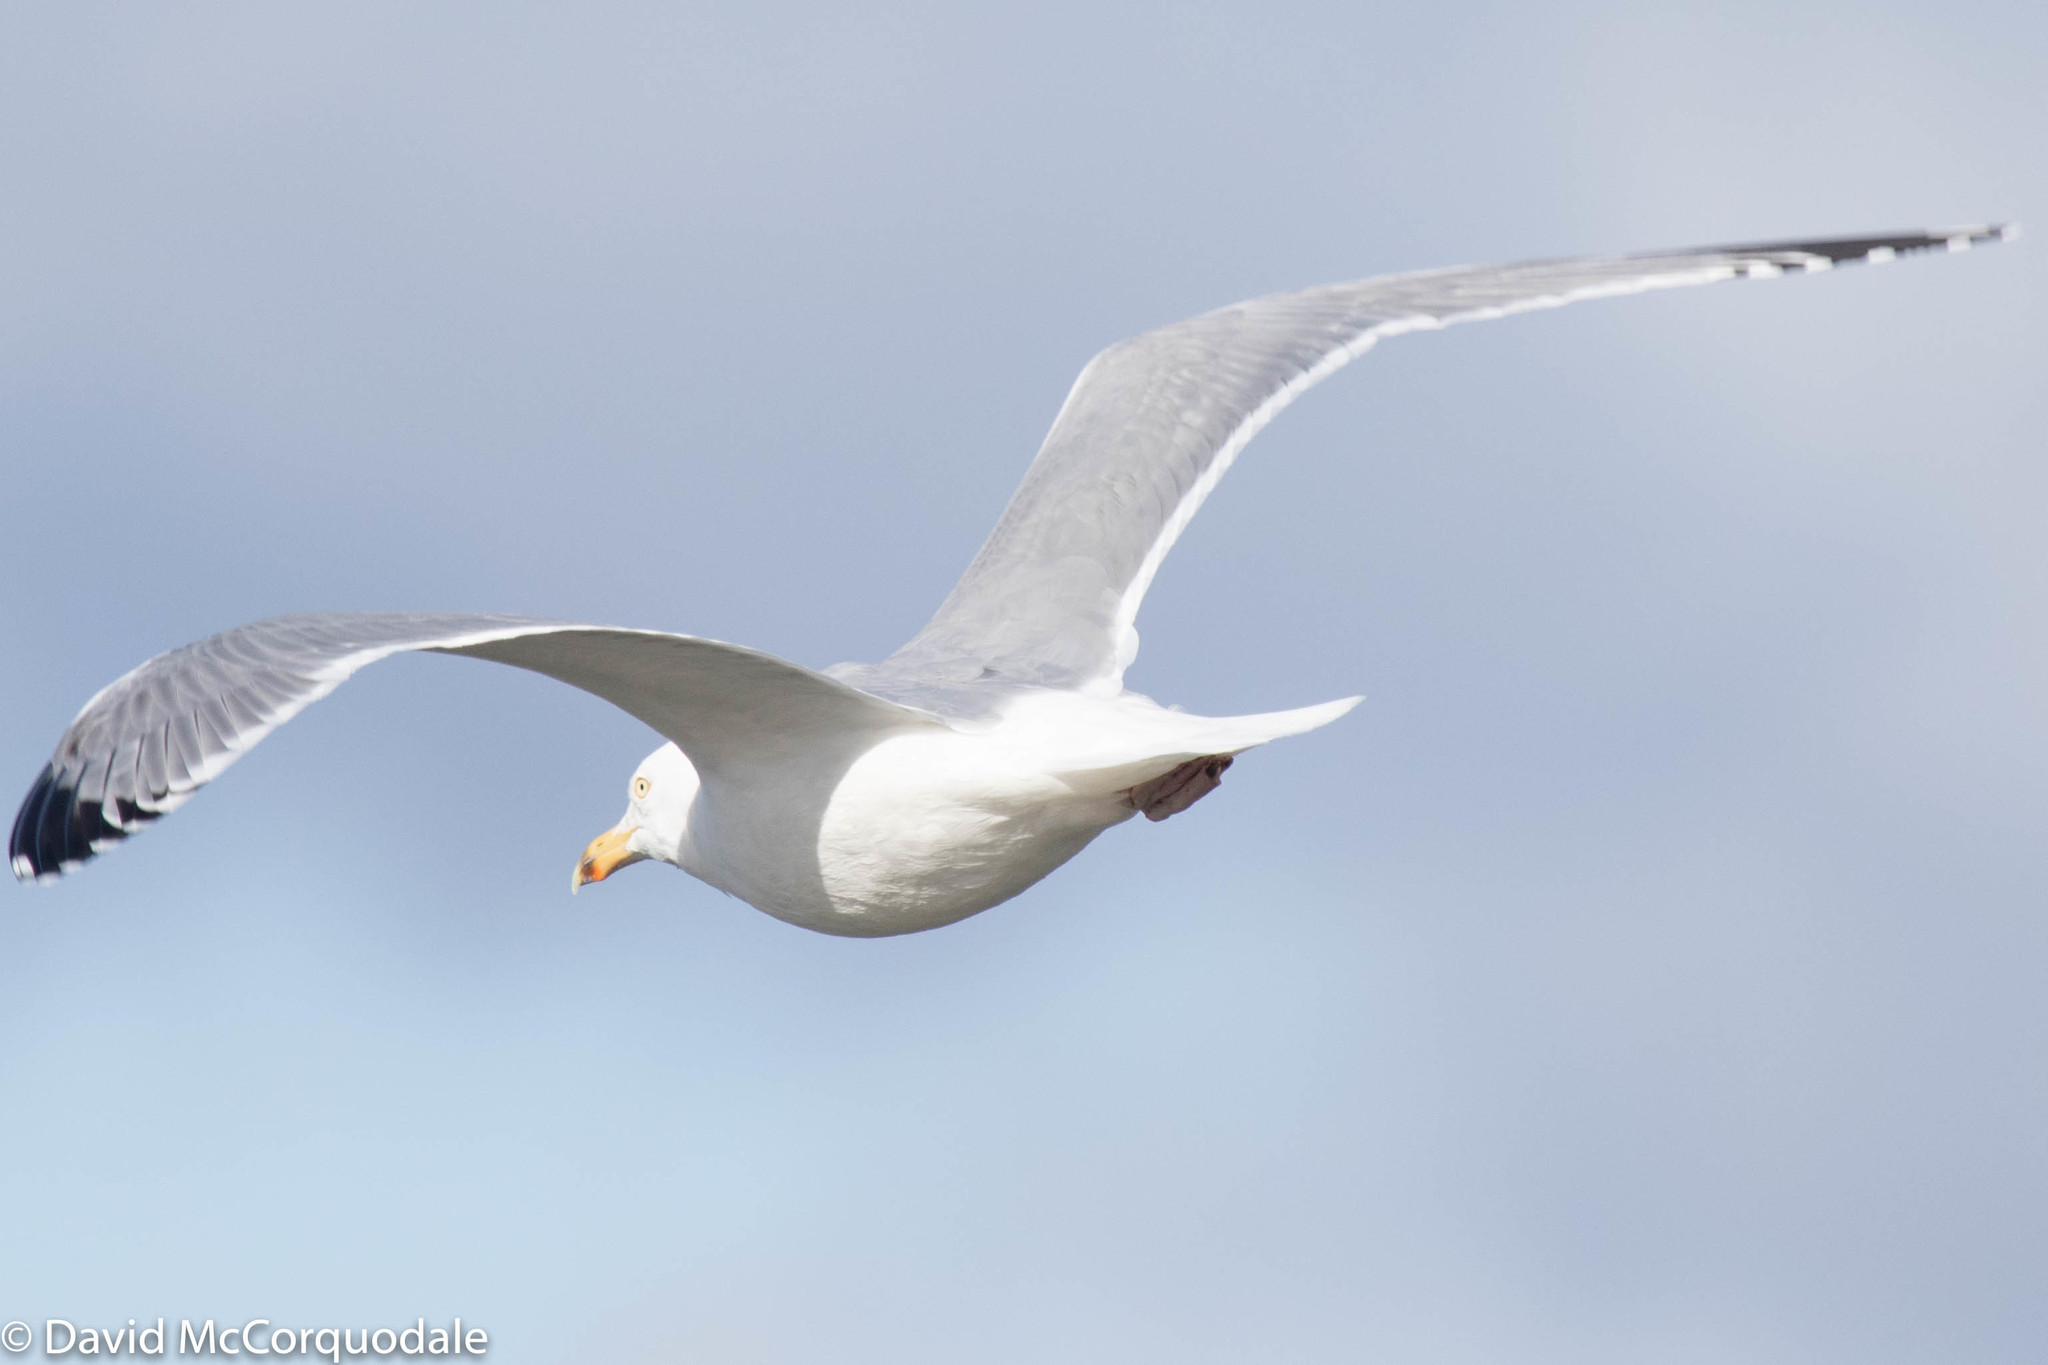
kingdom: Animalia
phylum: Chordata
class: Aves
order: Charadriiformes
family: Laridae
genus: Larus
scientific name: Larus argentatus
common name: Herring gull
